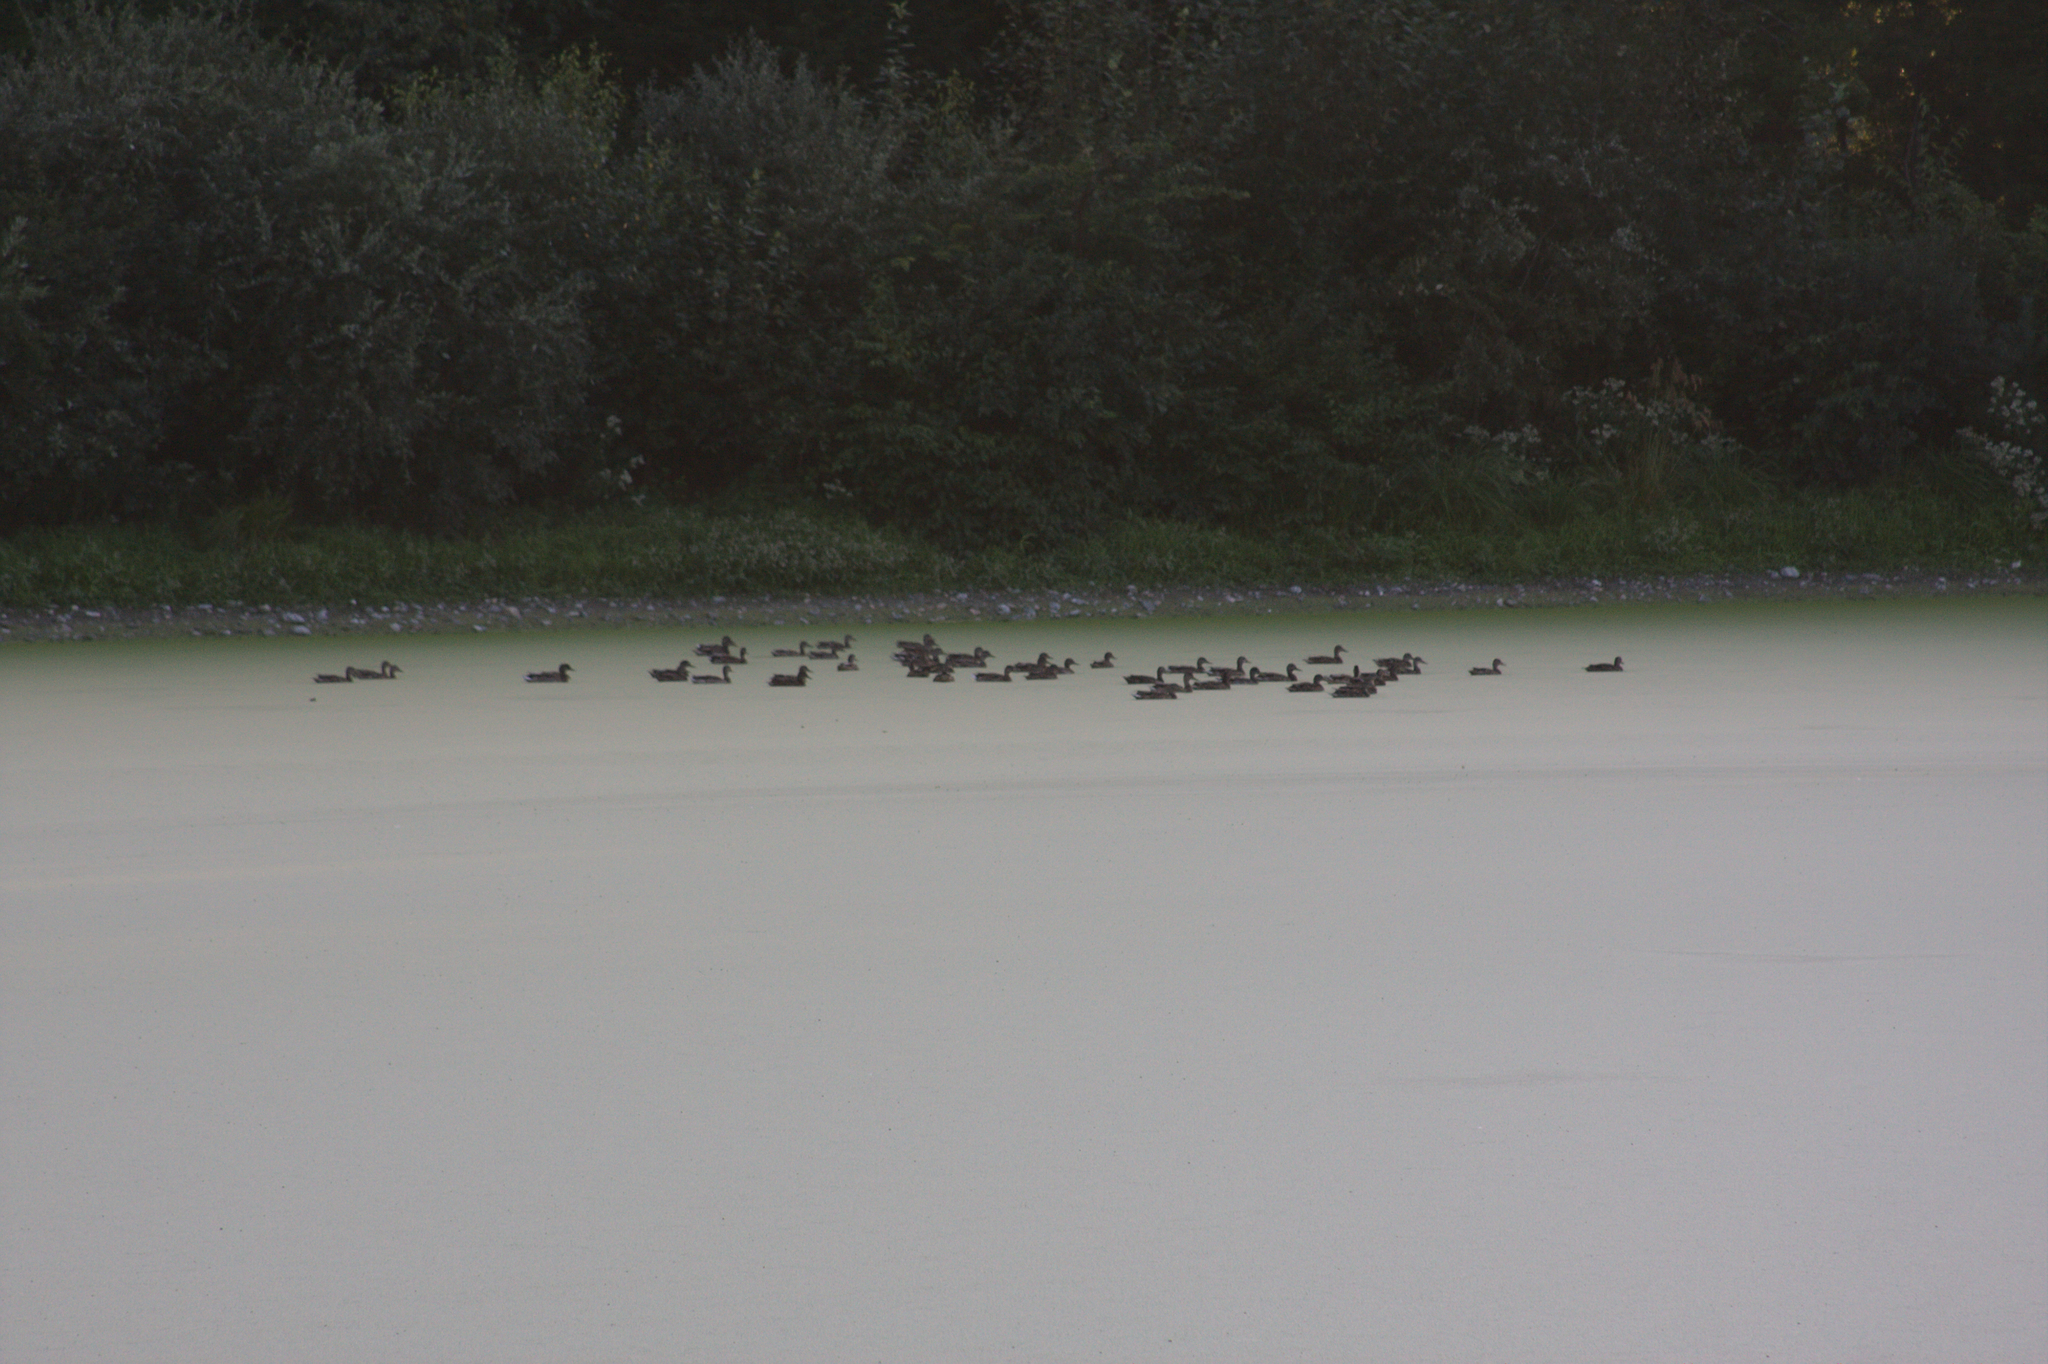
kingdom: Animalia
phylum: Chordata
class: Aves
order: Anseriformes
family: Anatidae
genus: Anas
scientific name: Anas platyrhynchos
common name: Mallard
